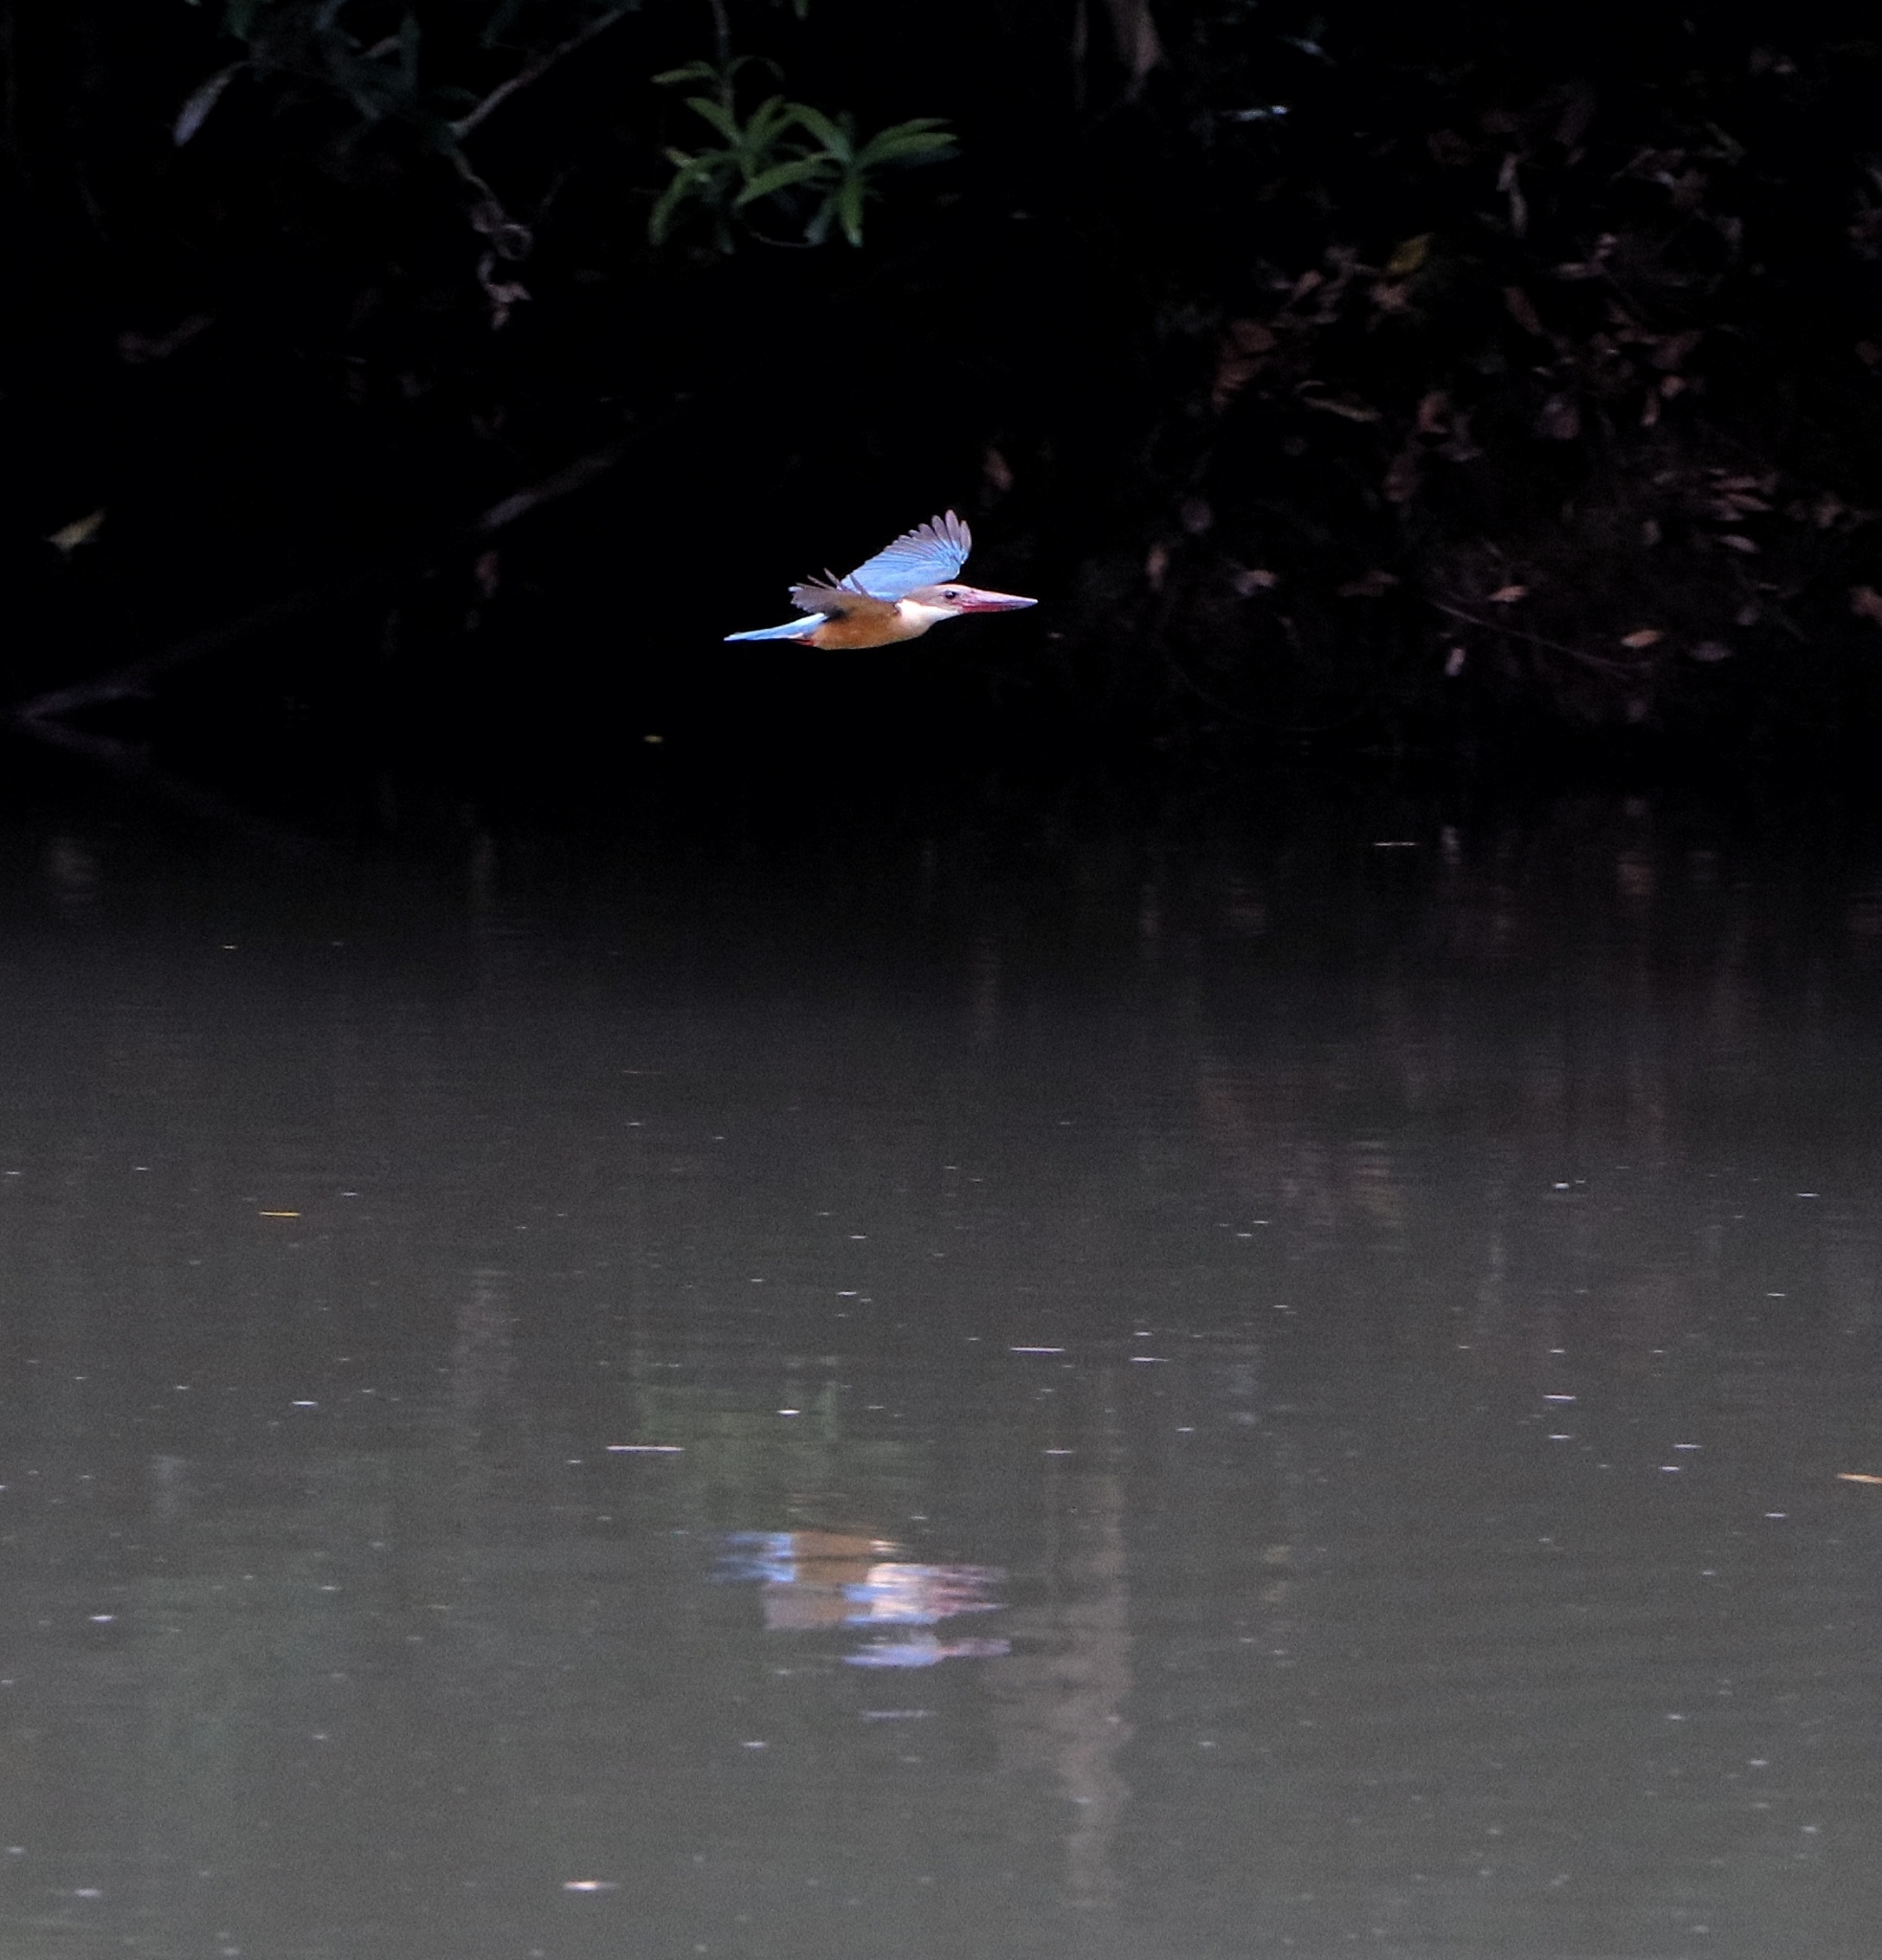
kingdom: Animalia
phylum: Chordata
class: Aves
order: Coraciiformes
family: Alcedinidae
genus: Pelargopsis
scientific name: Pelargopsis capensis
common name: Stork-billed kingfisher
